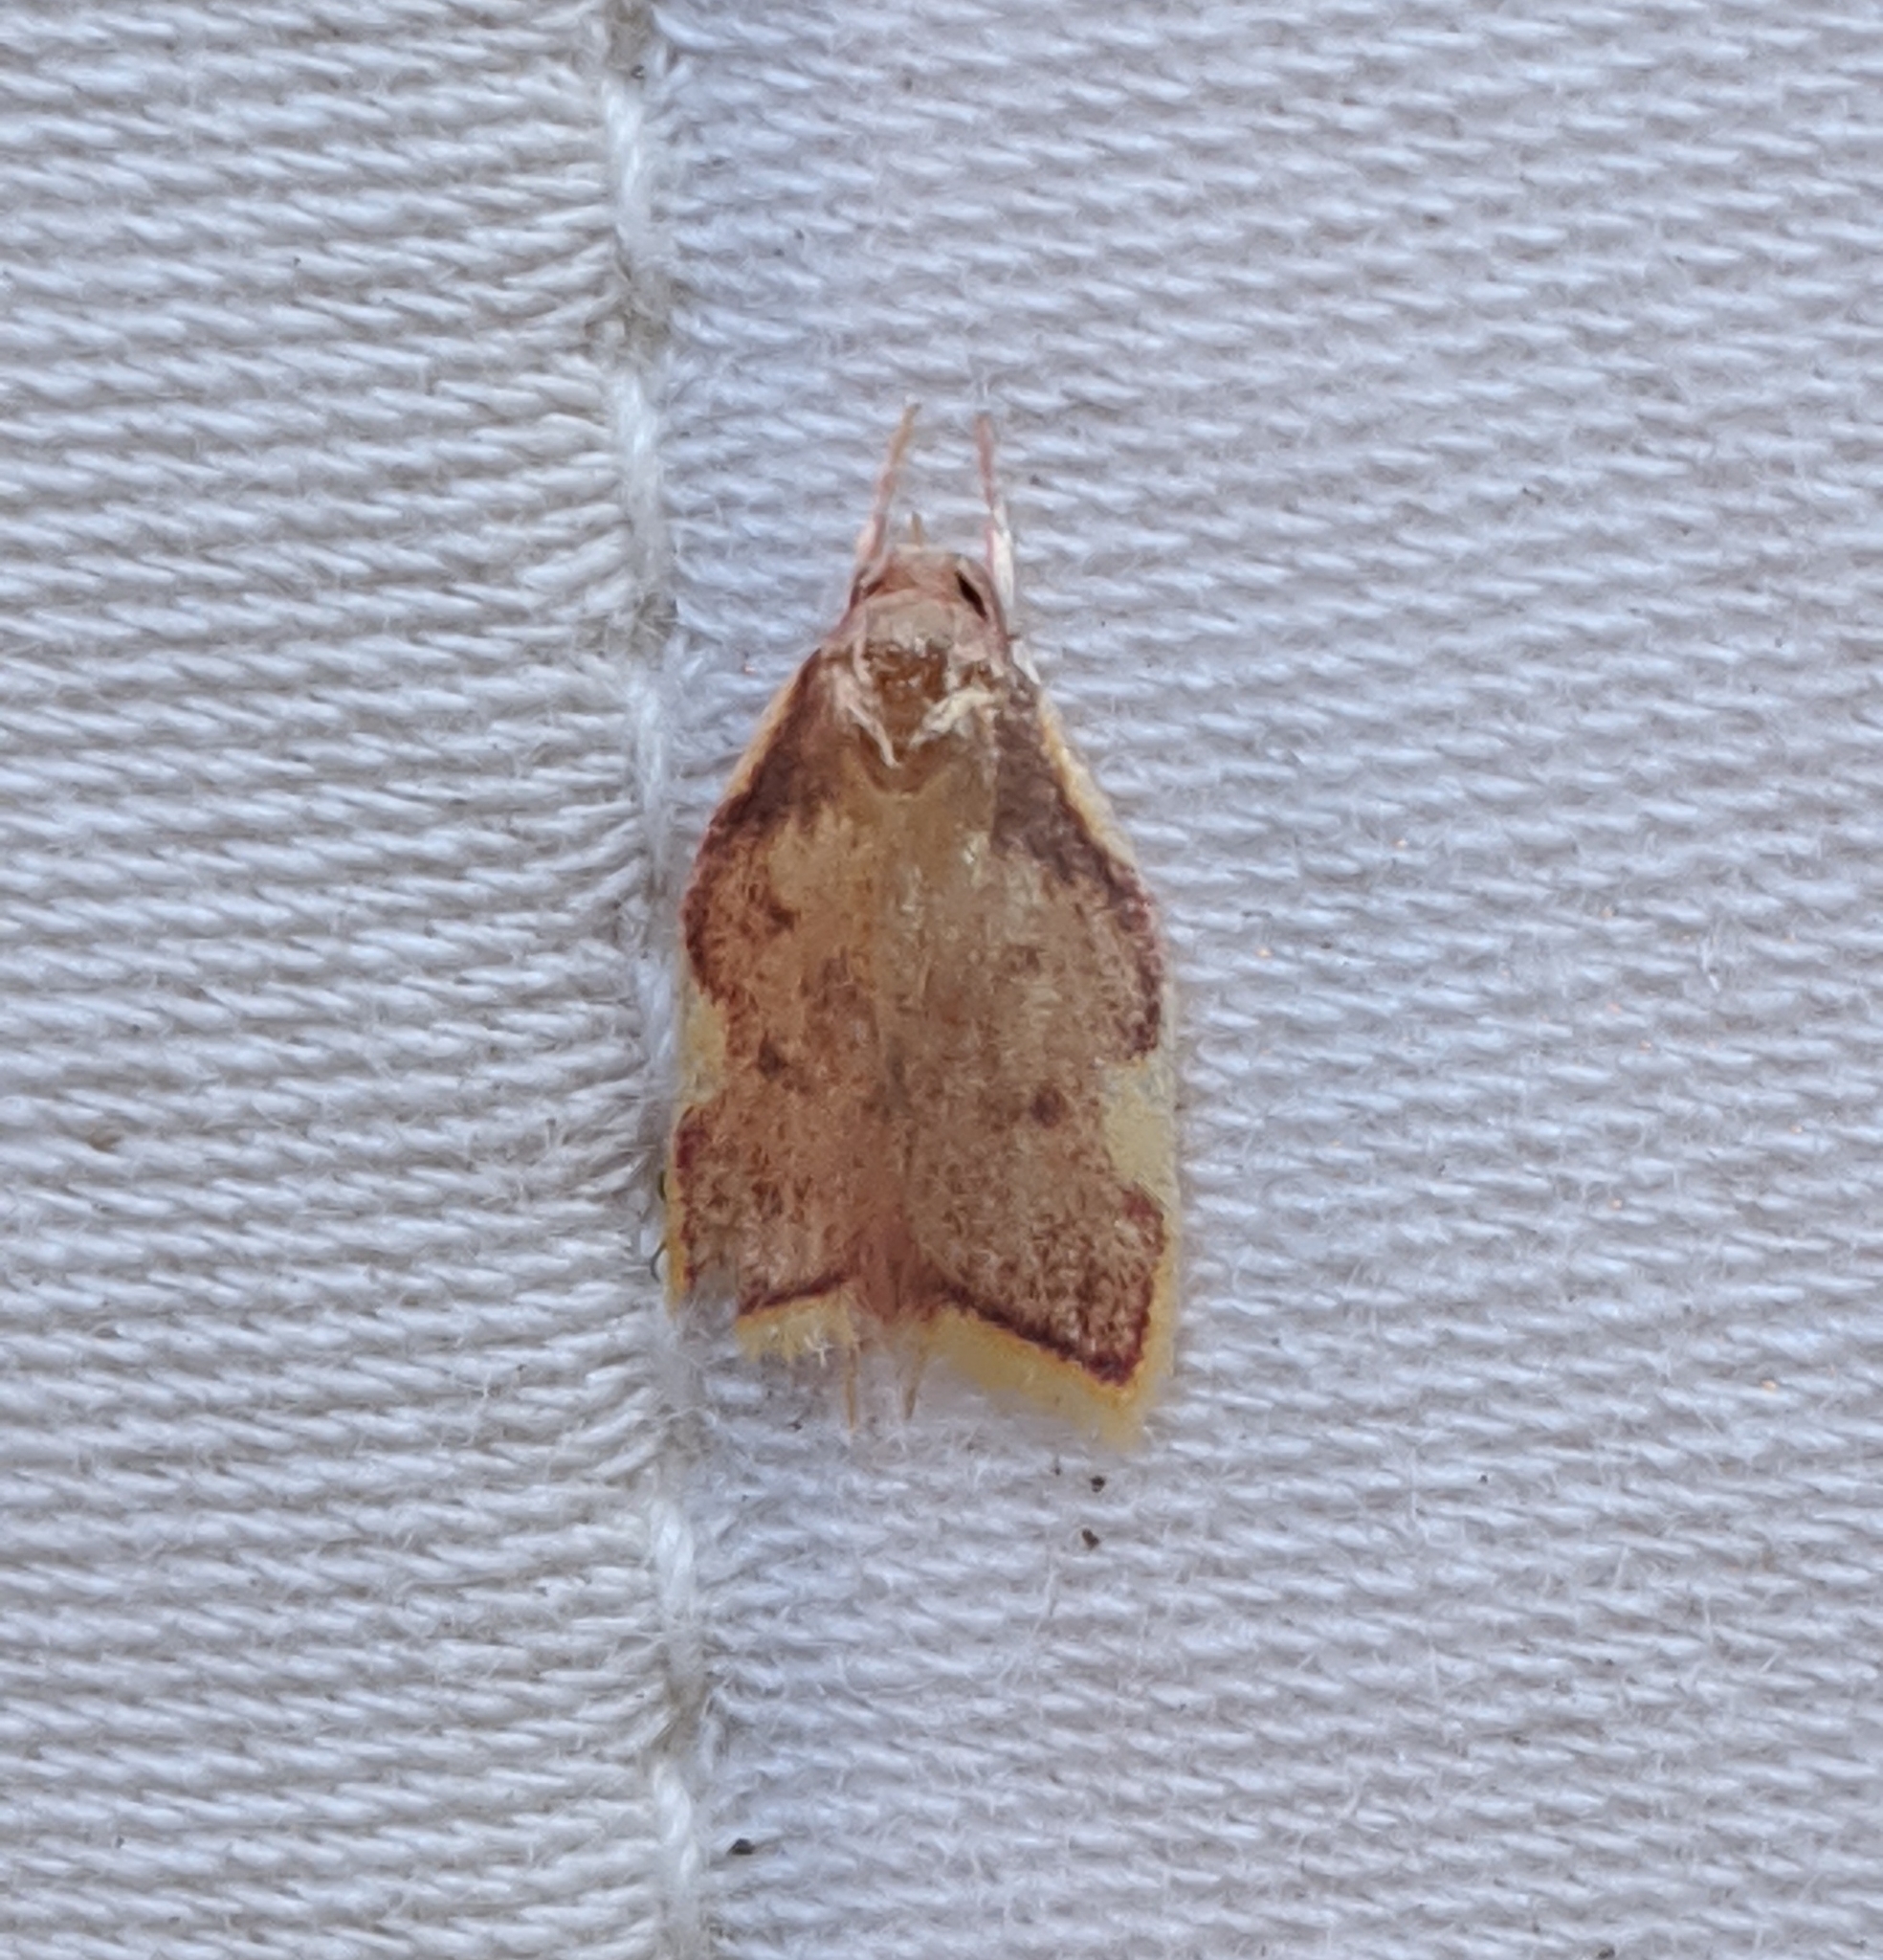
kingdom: Animalia
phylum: Arthropoda
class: Insecta
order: Lepidoptera
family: Peleopodidae
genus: Carcina
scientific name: Carcina quercana
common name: Moth
